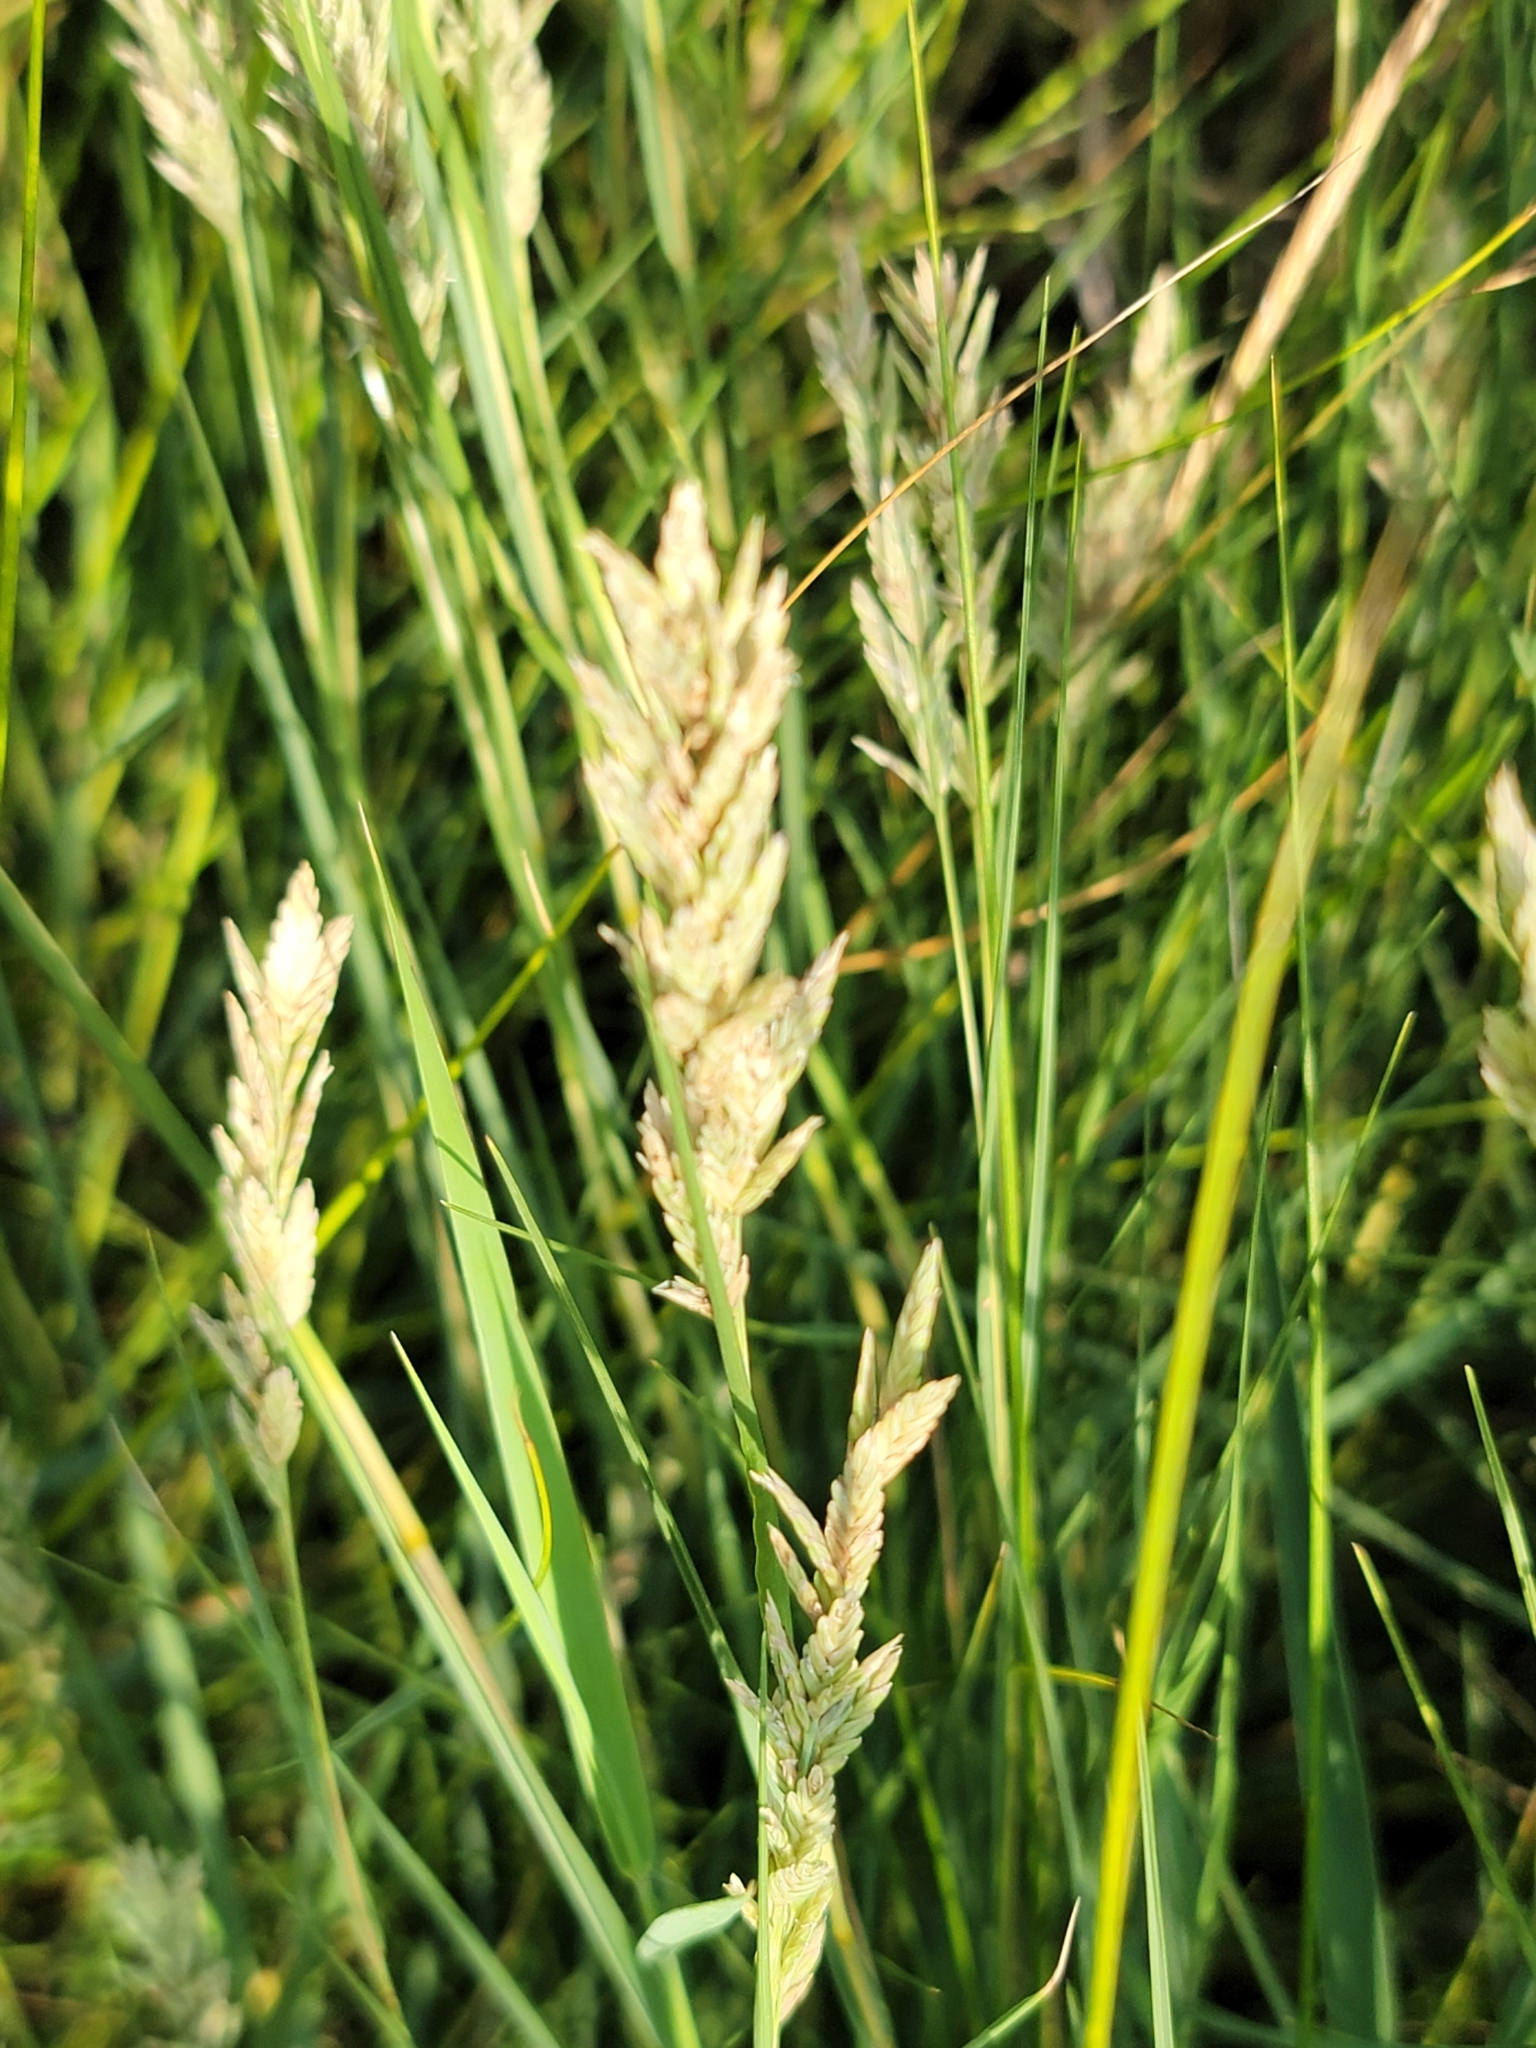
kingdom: Plantae
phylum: Tracheophyta
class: Liliopsida
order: Poales
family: Poaceae
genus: Distichlis
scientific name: Distichlis spicata
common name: Saltgrass
